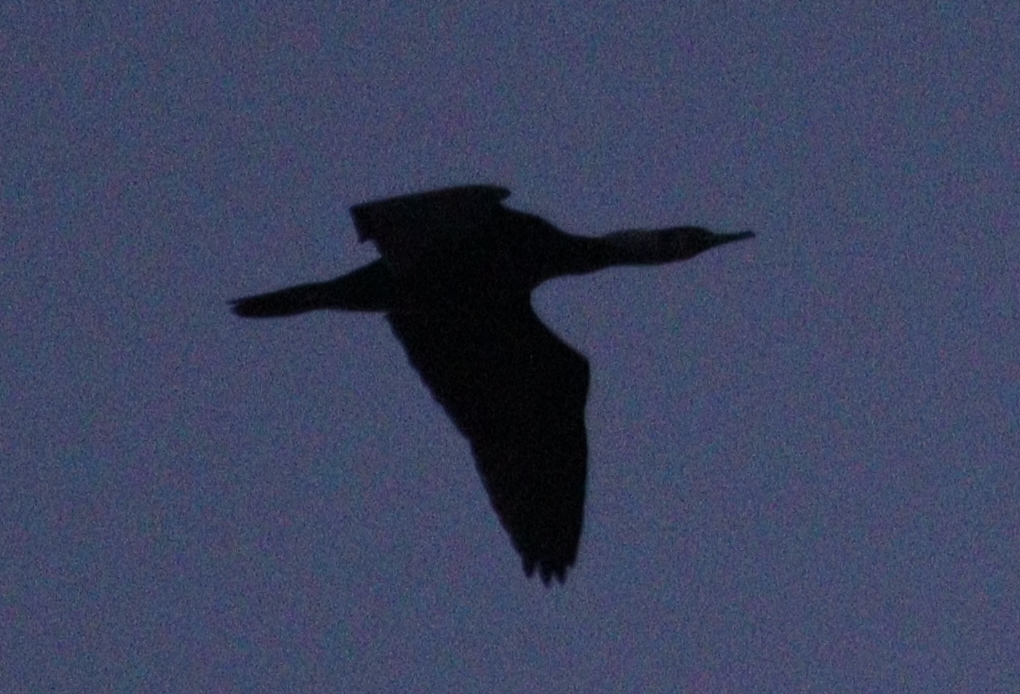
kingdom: Animalia
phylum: Chordata
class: Aves
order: Suliformes
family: Phalacrocoracidae
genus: Phalacrocorax
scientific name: Phalacrocorax carbo
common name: Great cormorant
